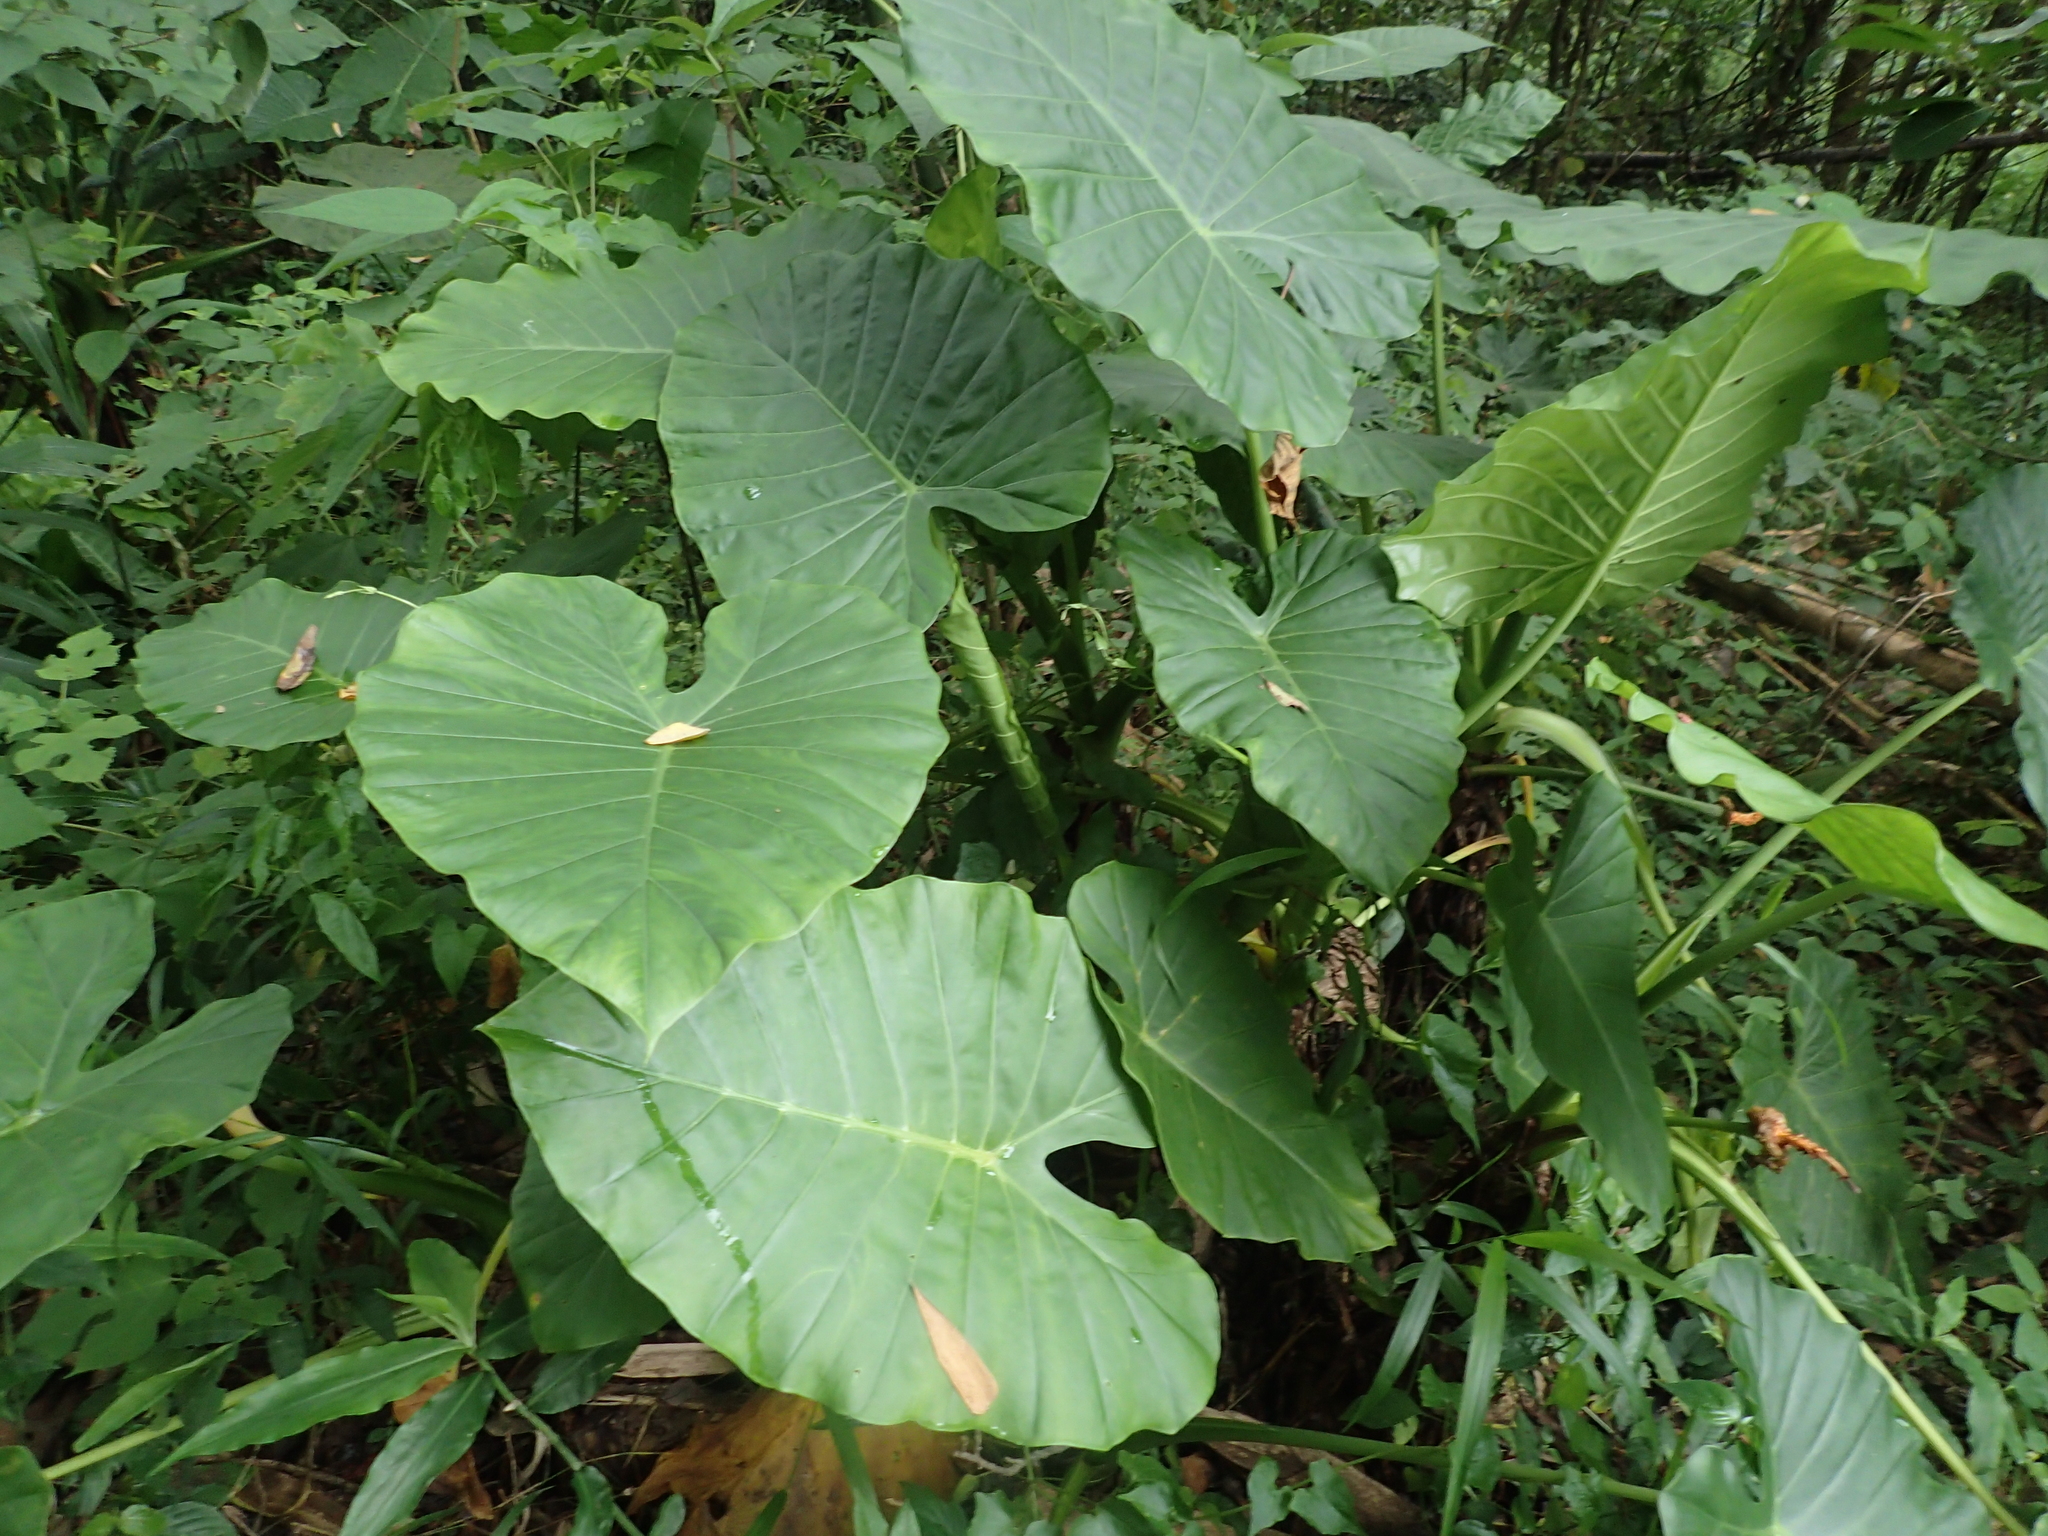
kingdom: Plantae
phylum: Tracheophyta
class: Liliopsida
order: Alismatales
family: Araceae
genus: Alocasia
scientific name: Alocasia odora
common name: Asian taro
